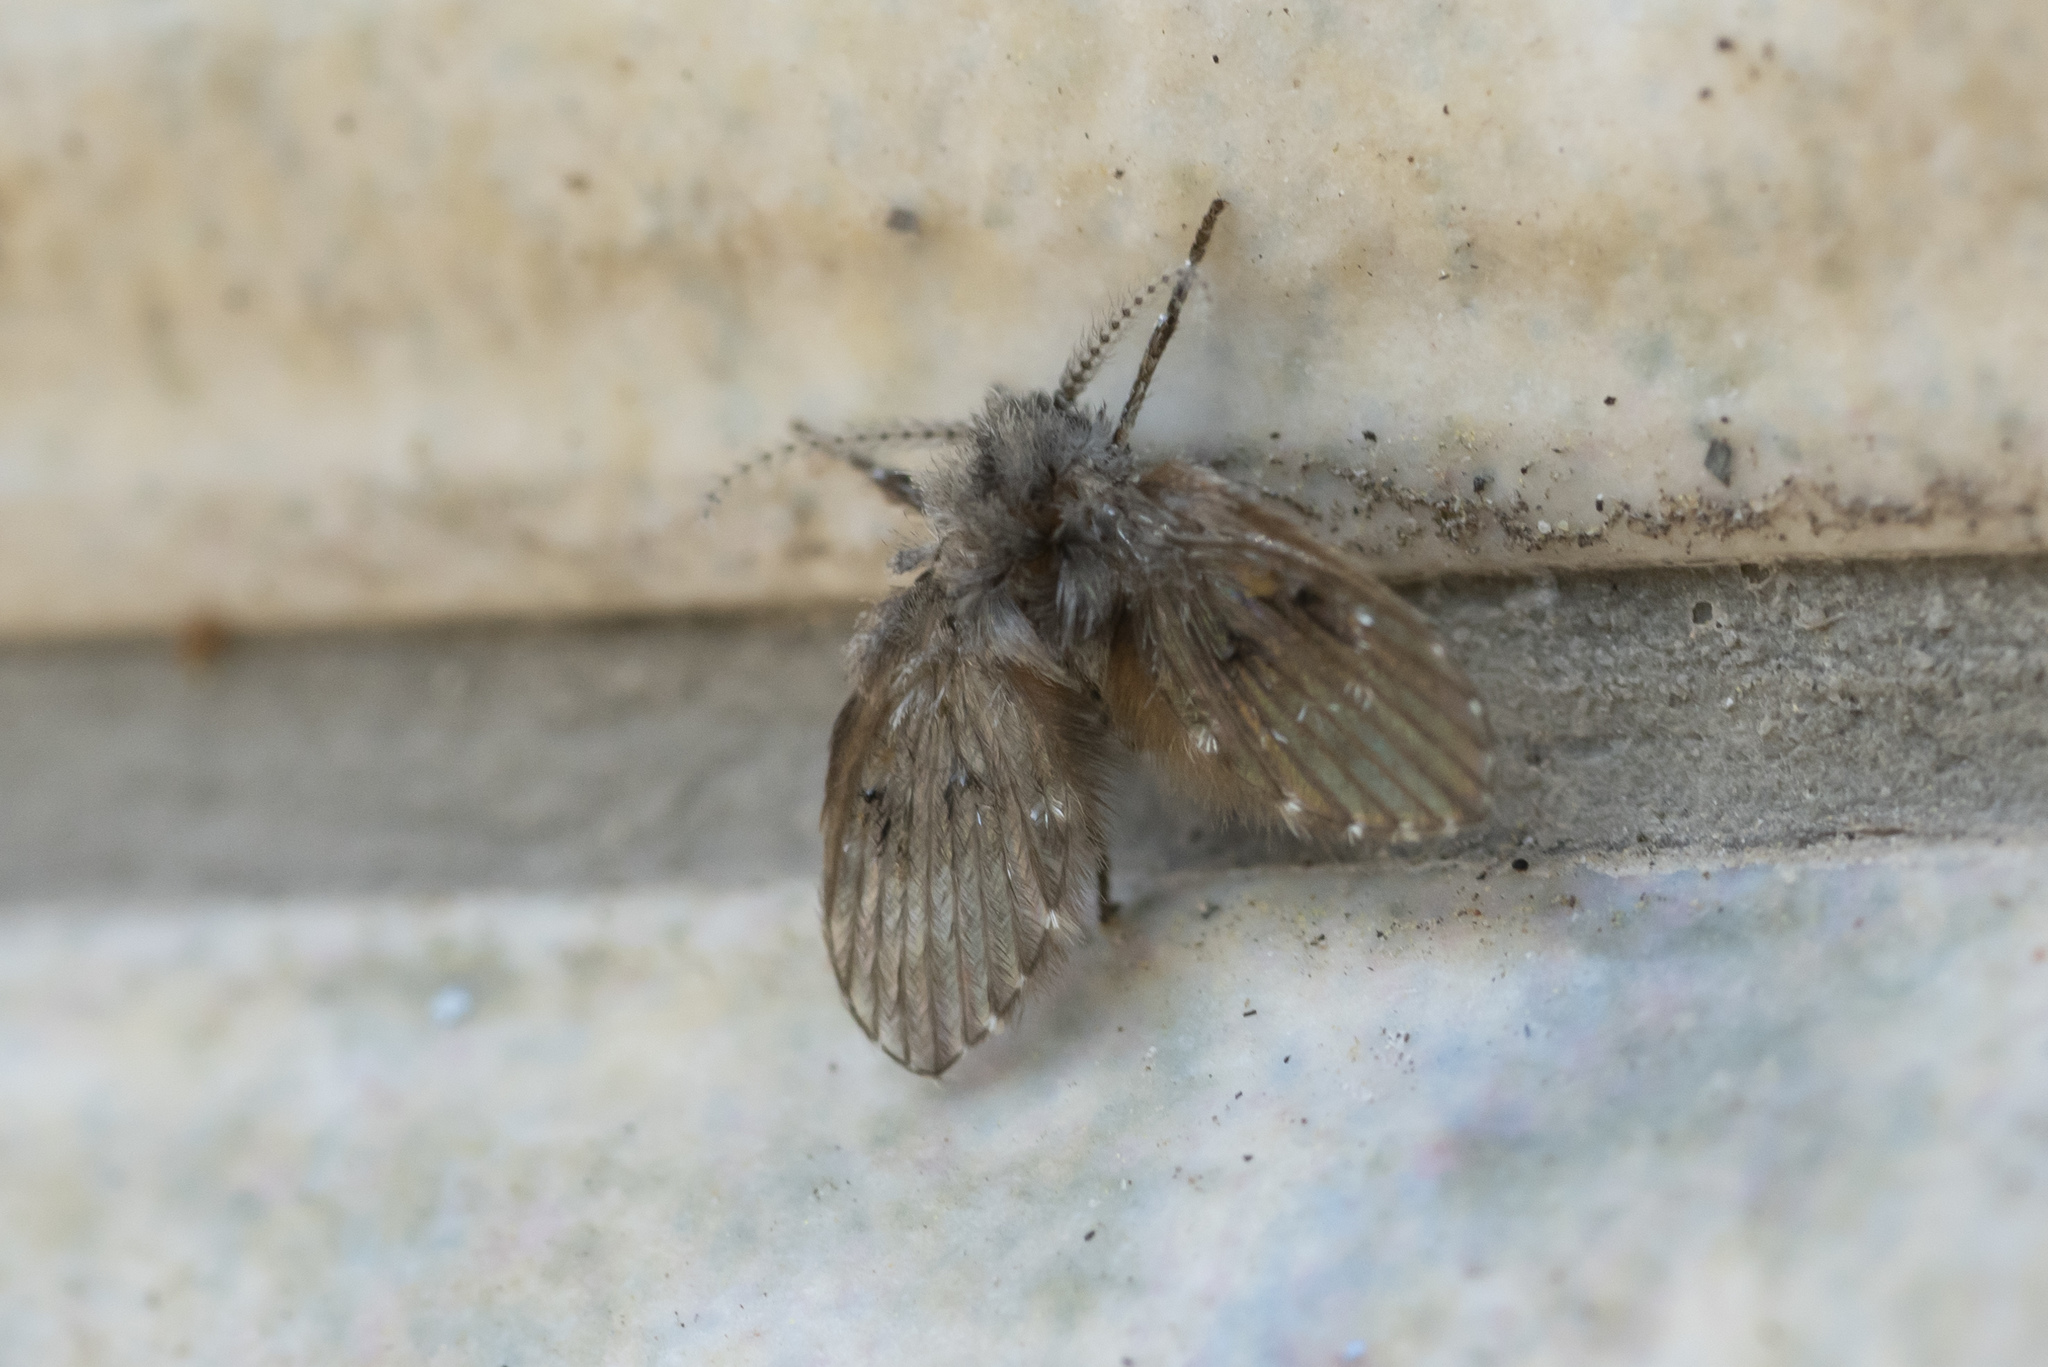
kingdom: Animalia
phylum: Arthropoda
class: Insecta
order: Diptera
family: Psychodidae
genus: Clogmia
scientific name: Clogmia albipunctatus
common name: White-spotted moth fly
